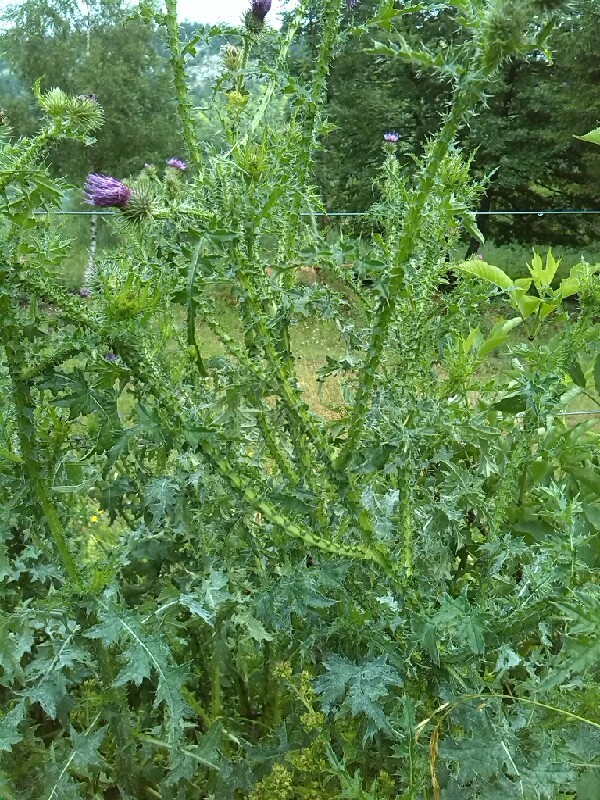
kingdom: Plantae
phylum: Tracheophyta
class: Magnoliopsida
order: Asterales
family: Asteraceae
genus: Carduus
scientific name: Carduus defloratus
